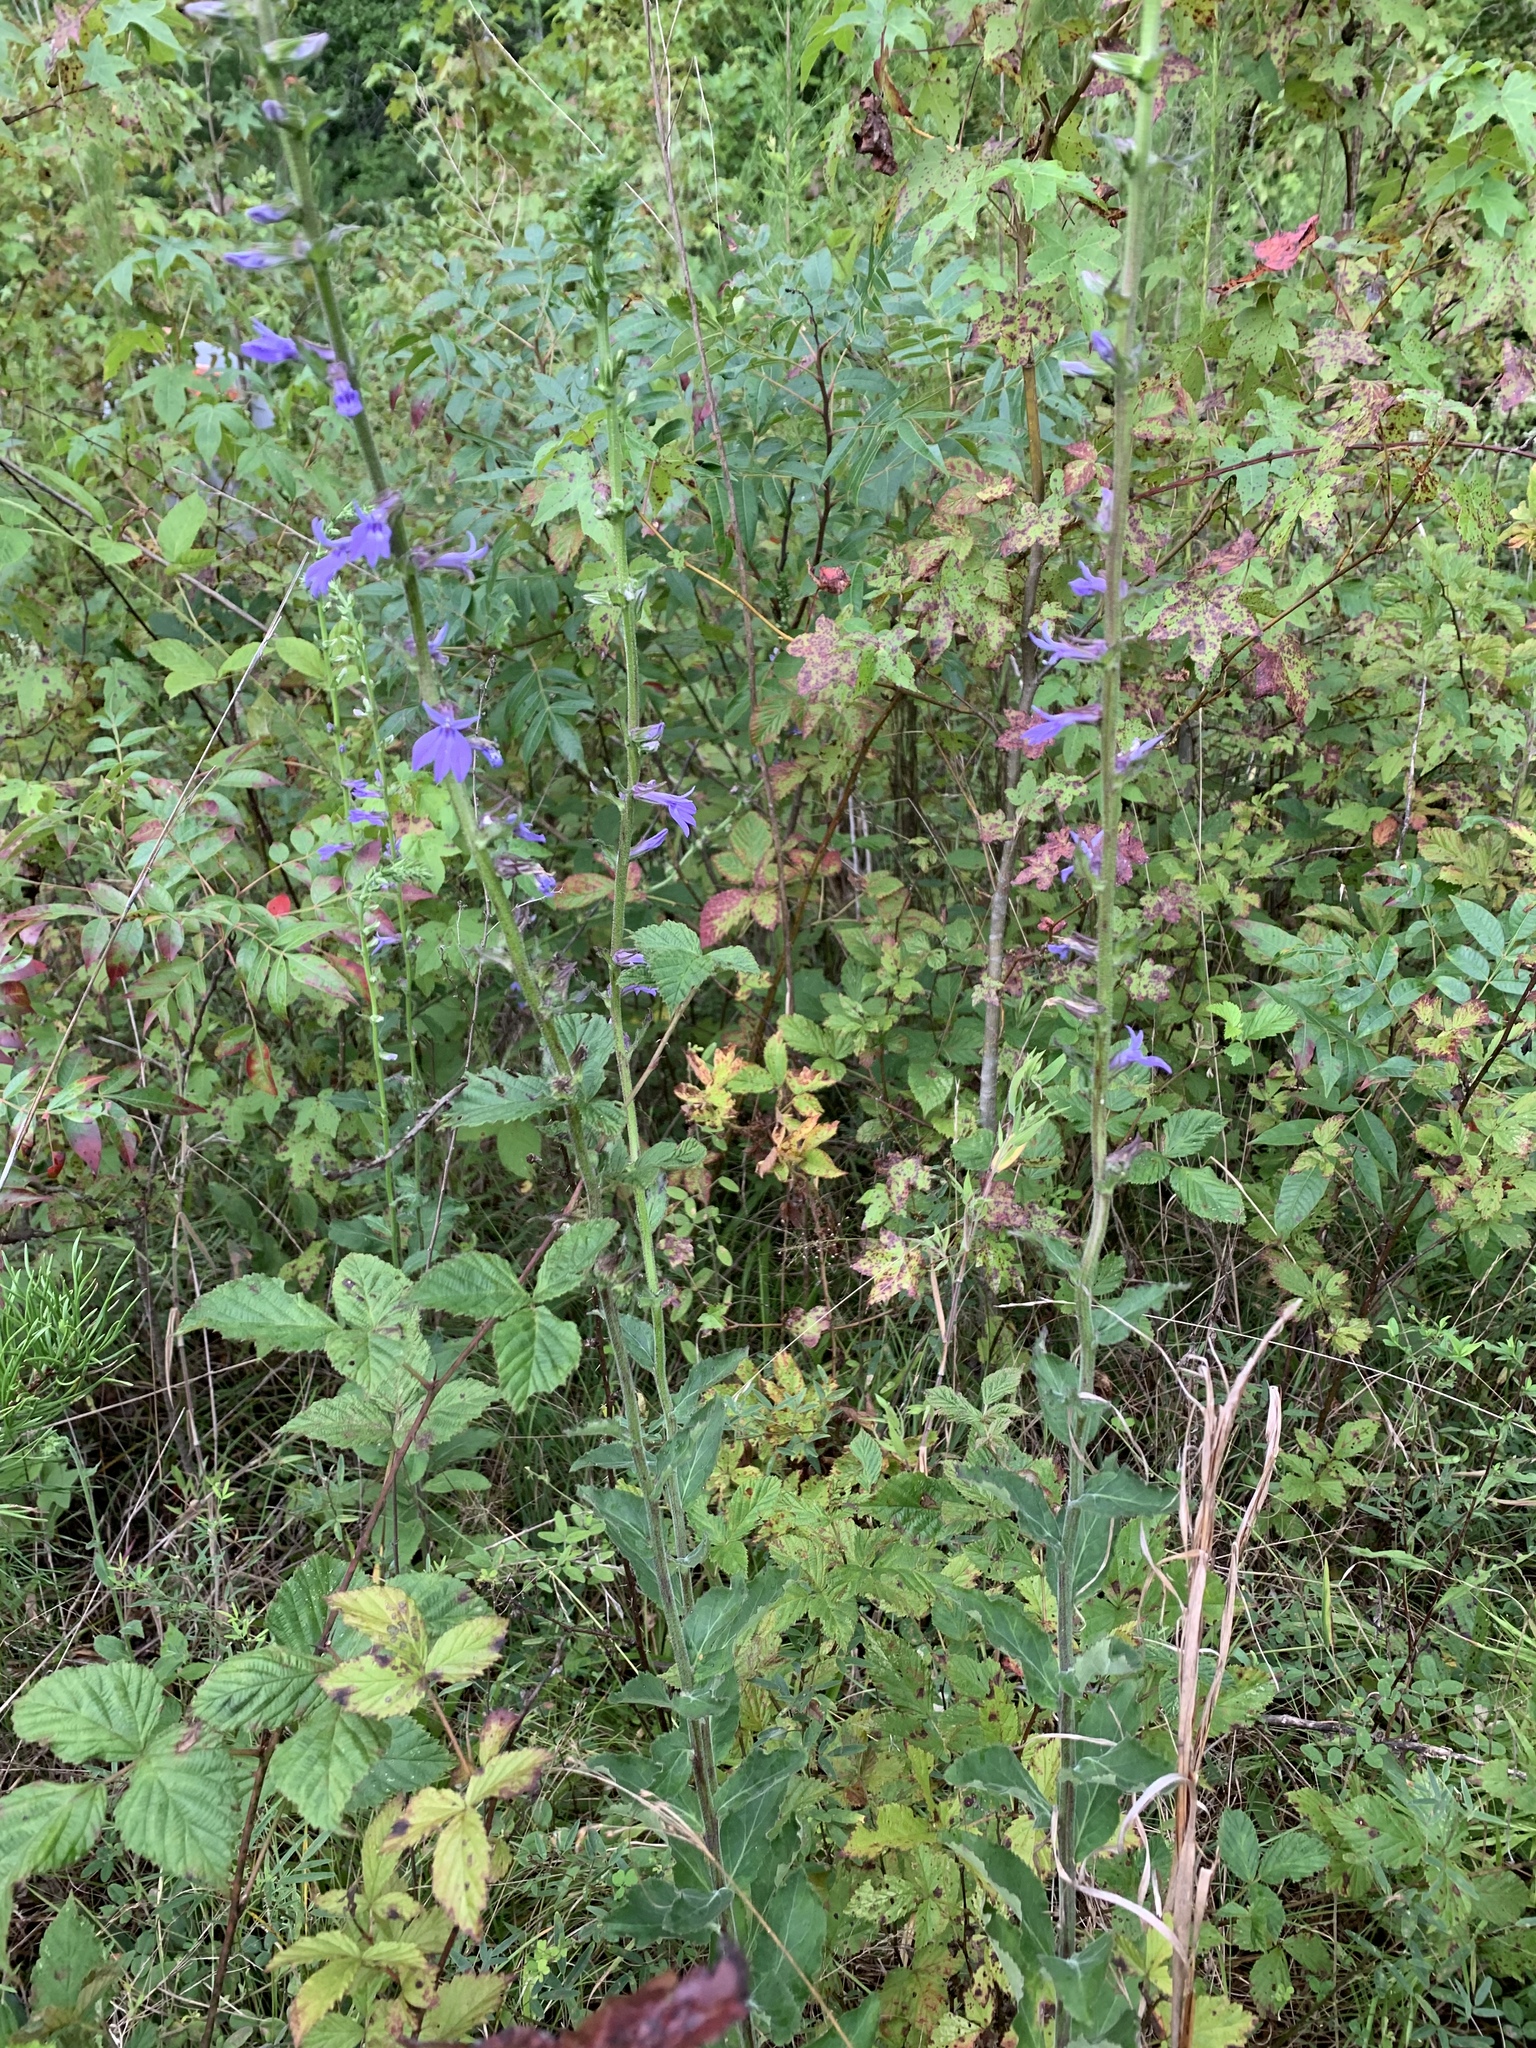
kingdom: Plantae
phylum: Tracheophyta
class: Magnoliopsida
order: Asterales
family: Campanulaceae
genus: Lobelia
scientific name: Lobelia puberula
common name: Purple dewdrop
